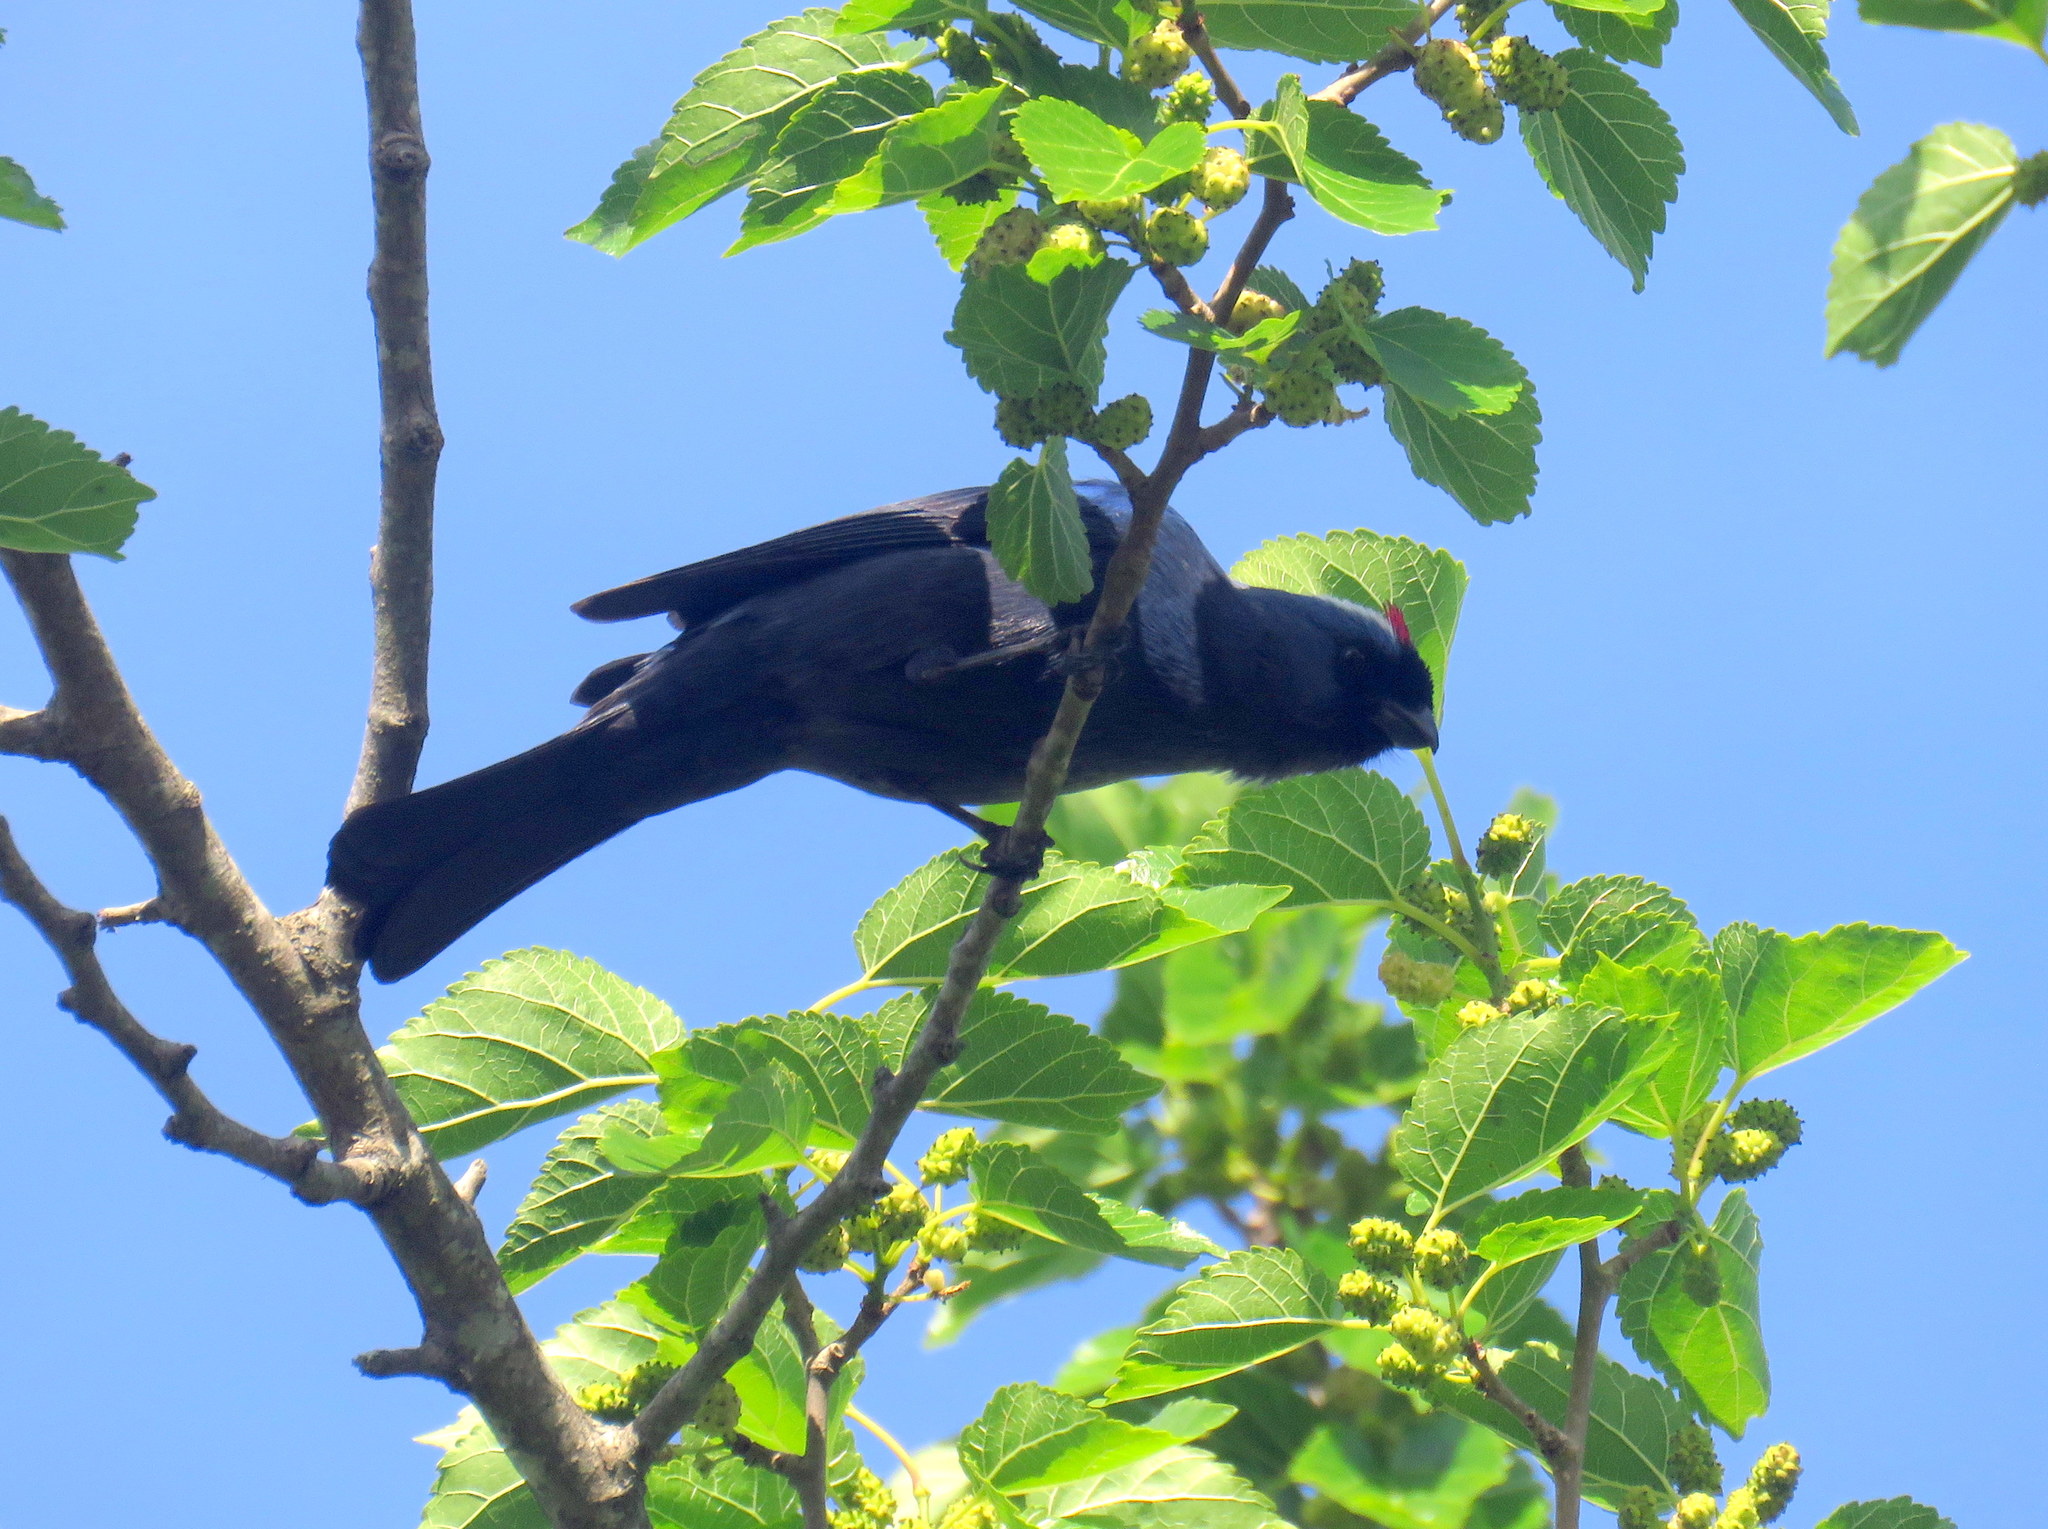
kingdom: Animalia
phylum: Chordata
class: Aves
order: Passeriformes
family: Thraupidae
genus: Stephanophorus
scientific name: Stephanophorus diadematus
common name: Diademed tanager
